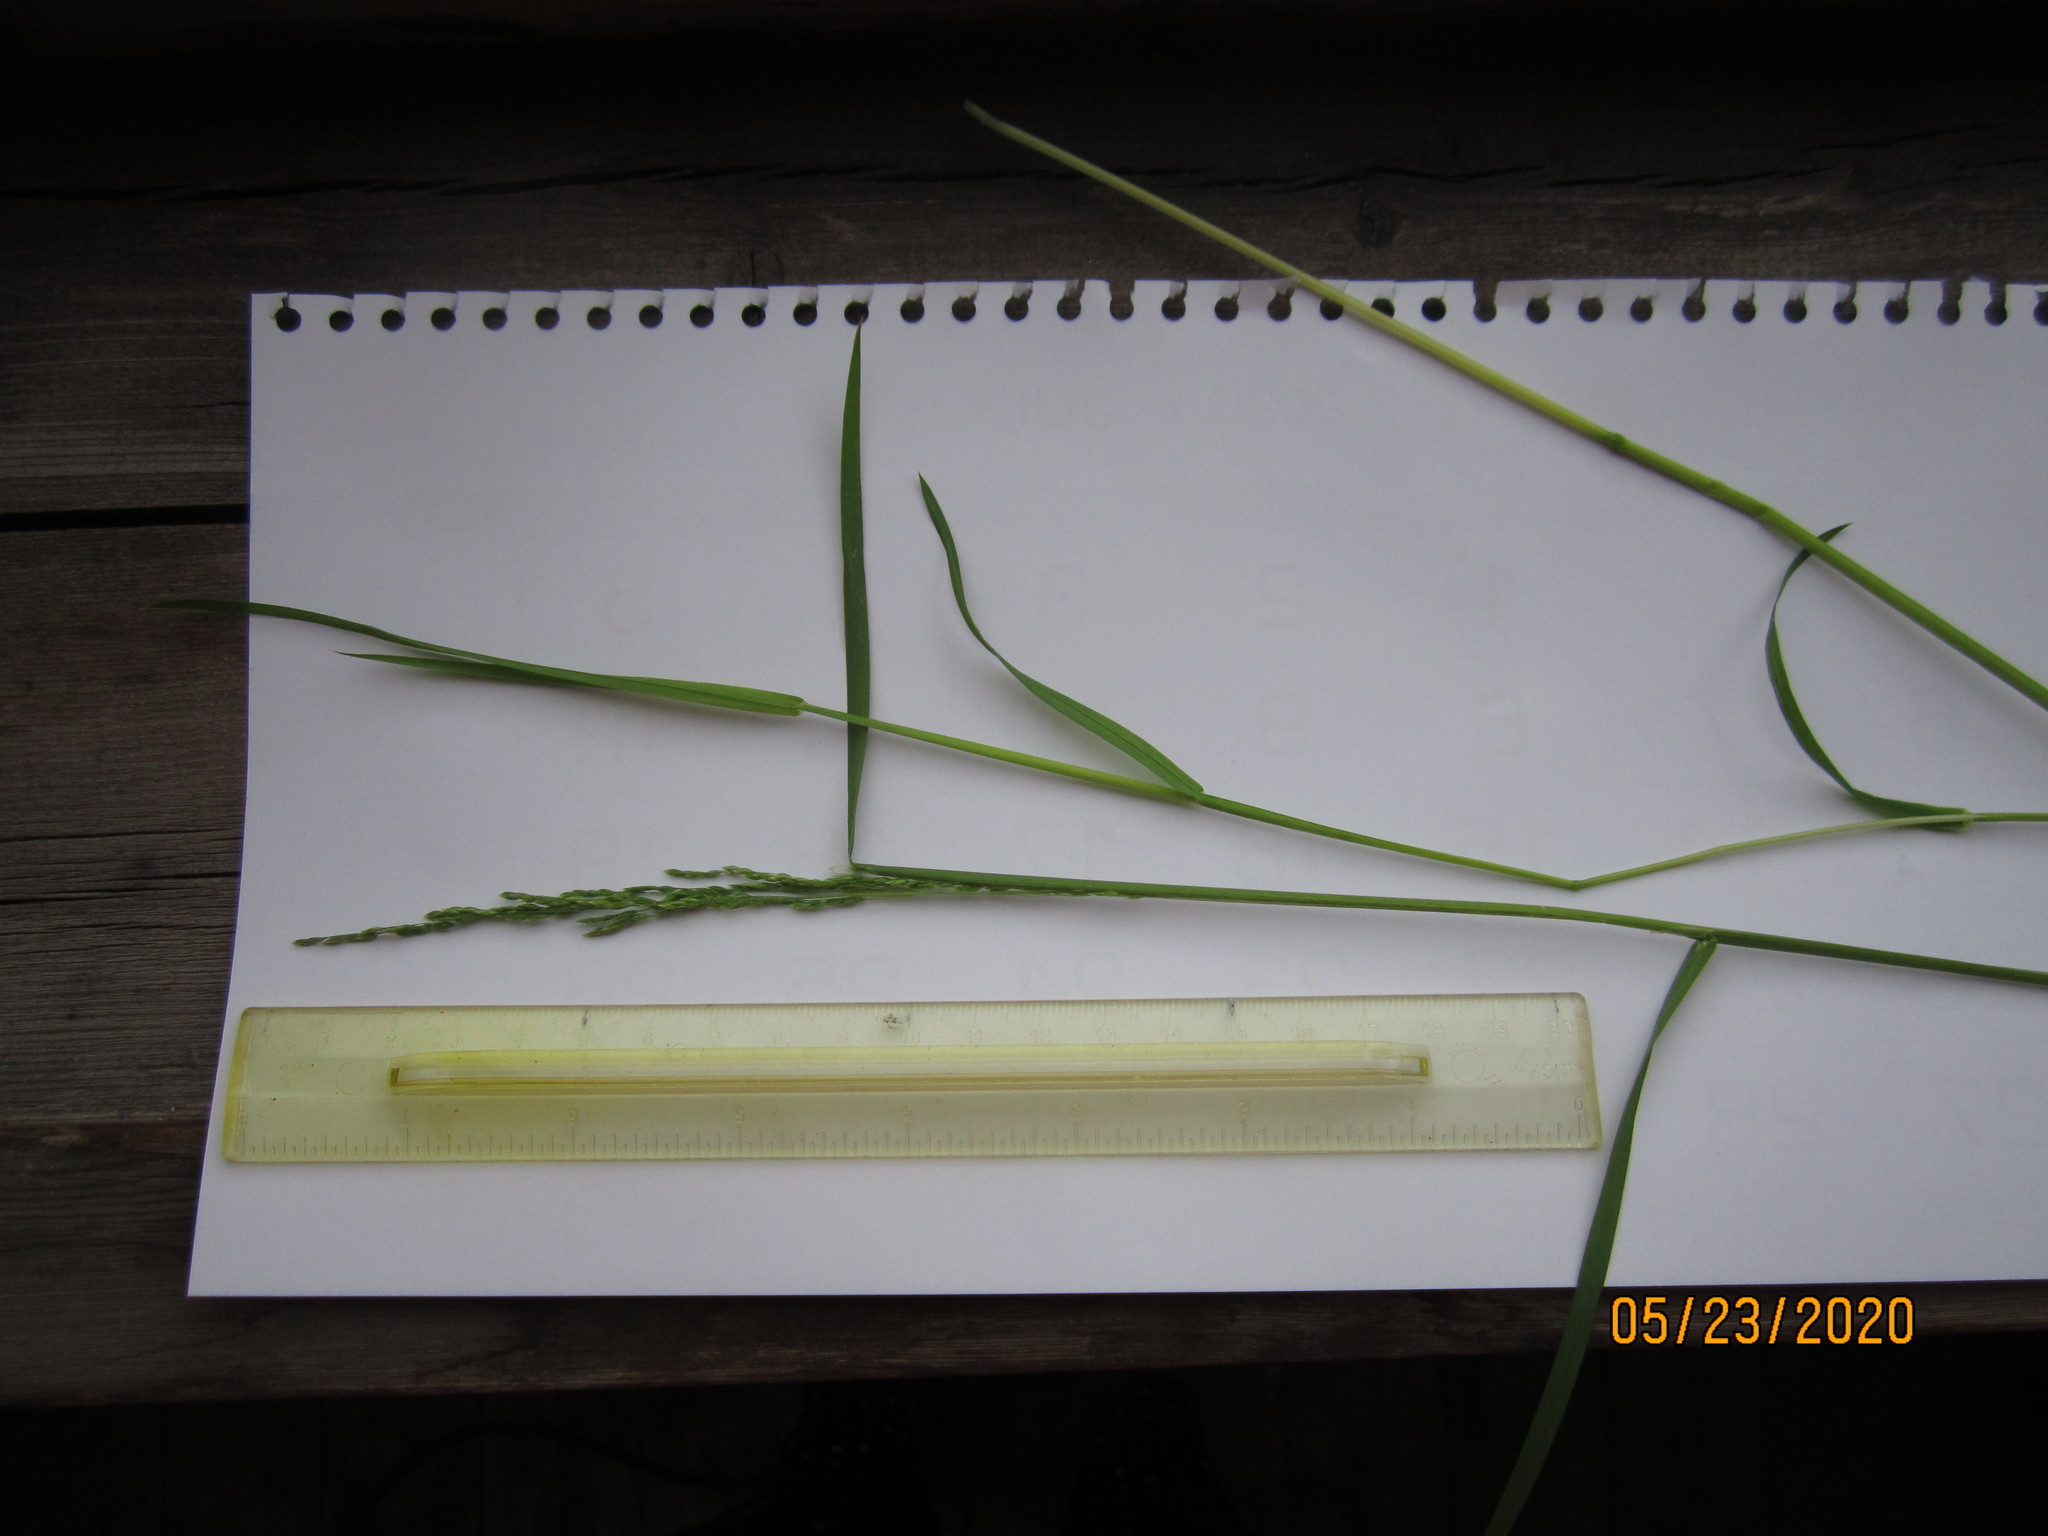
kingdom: Plantae
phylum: Tracheophyta
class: Liliopsida
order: Poales
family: Poaceae
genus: Poa
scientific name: Poa trivialis
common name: Rough bluegrass
